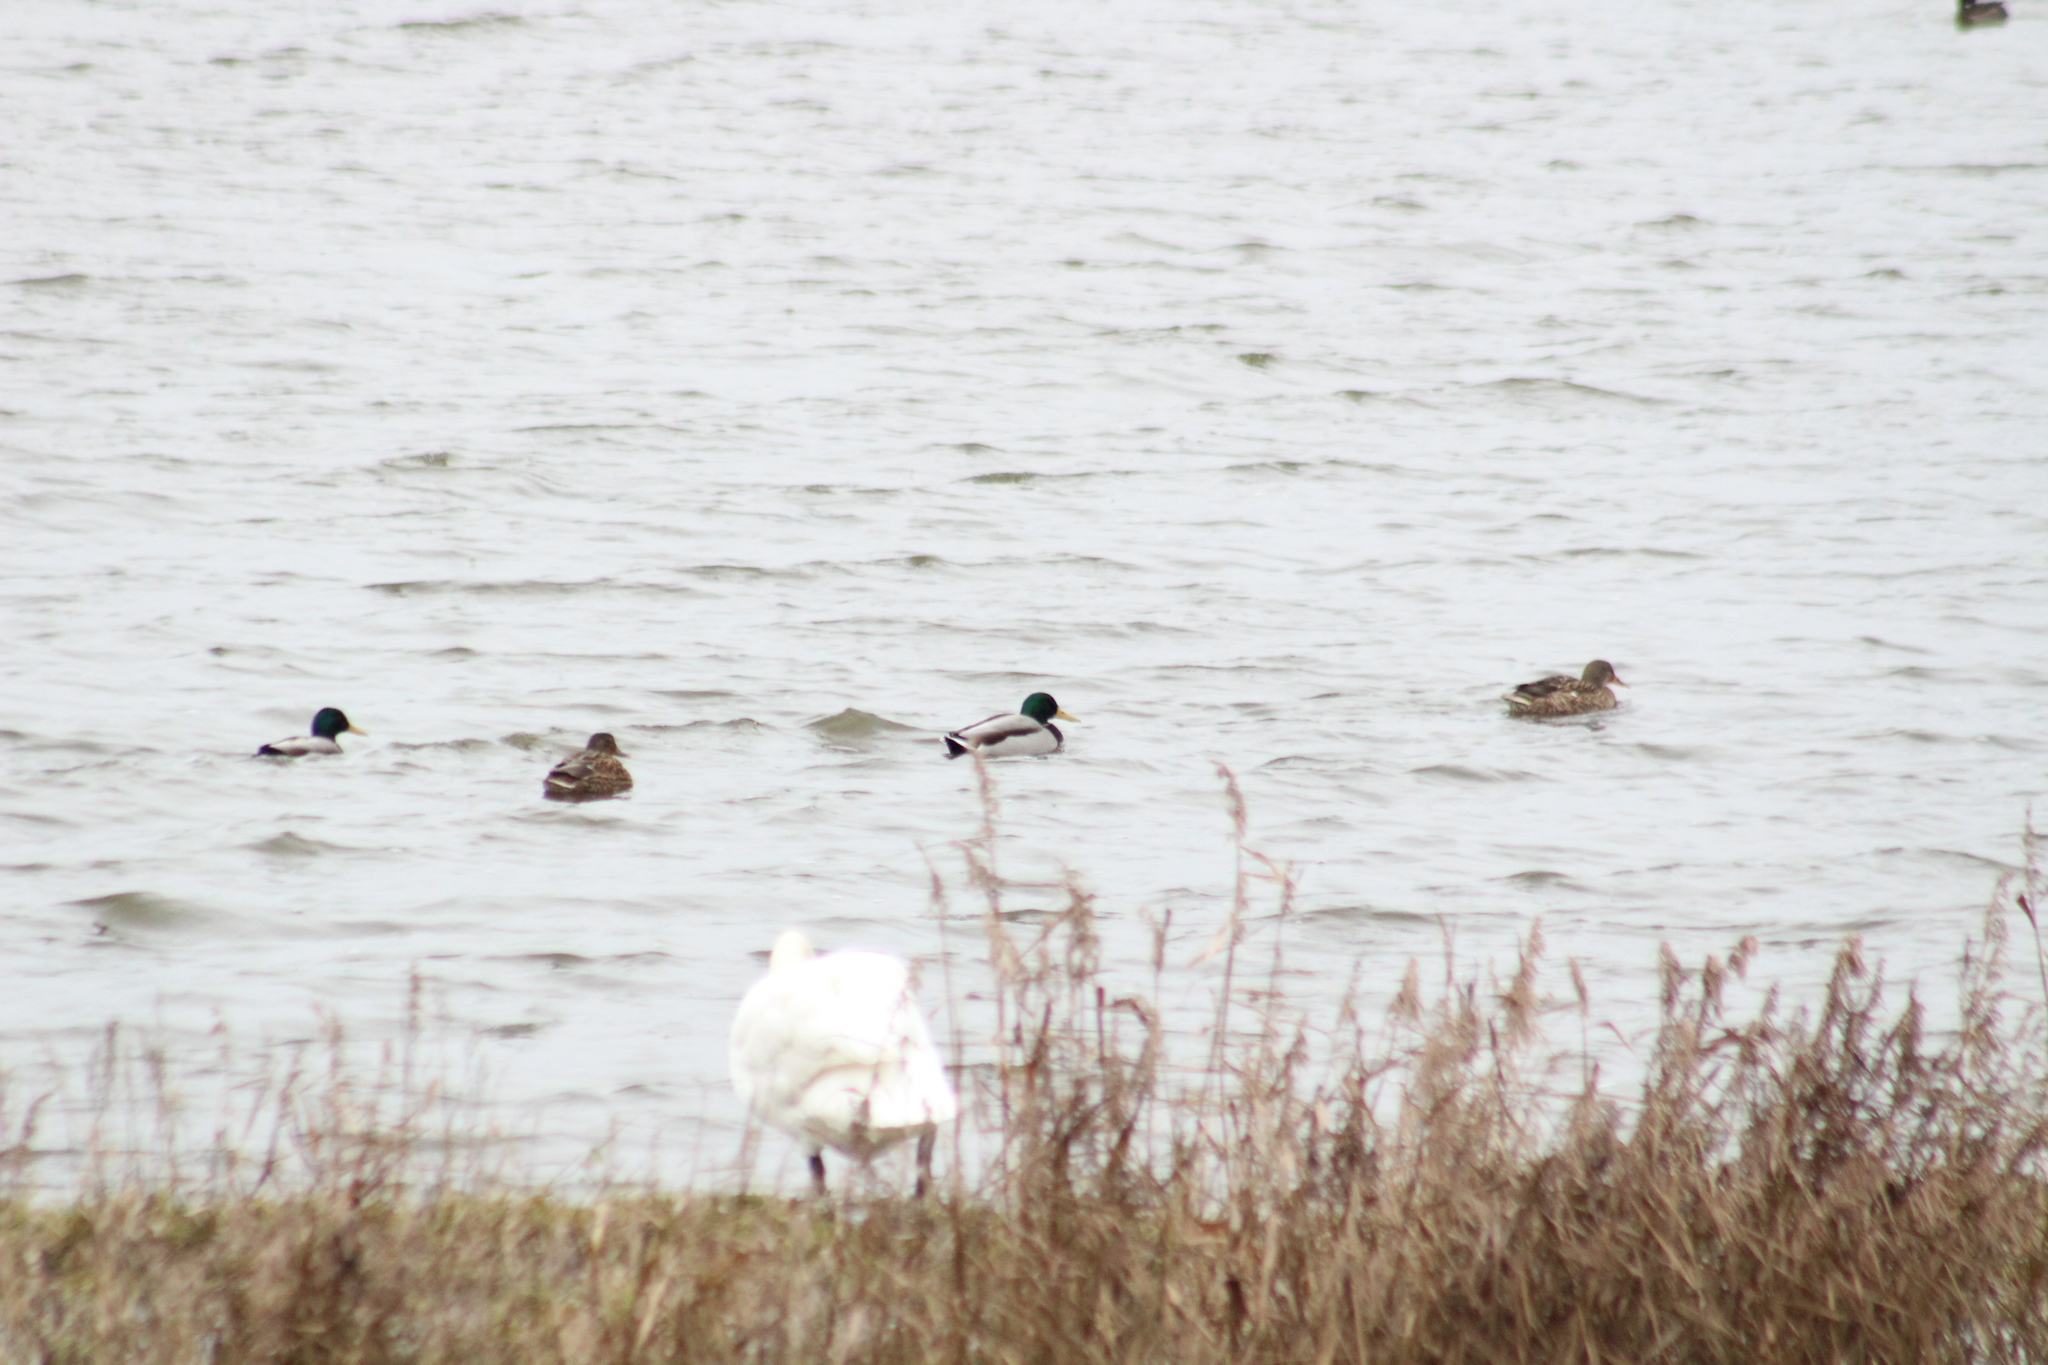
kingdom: Animalia
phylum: Chordata
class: Aves
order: Anseriformes
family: Anatidae
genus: Anas
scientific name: Anas platyrhynchos
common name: Mallard
